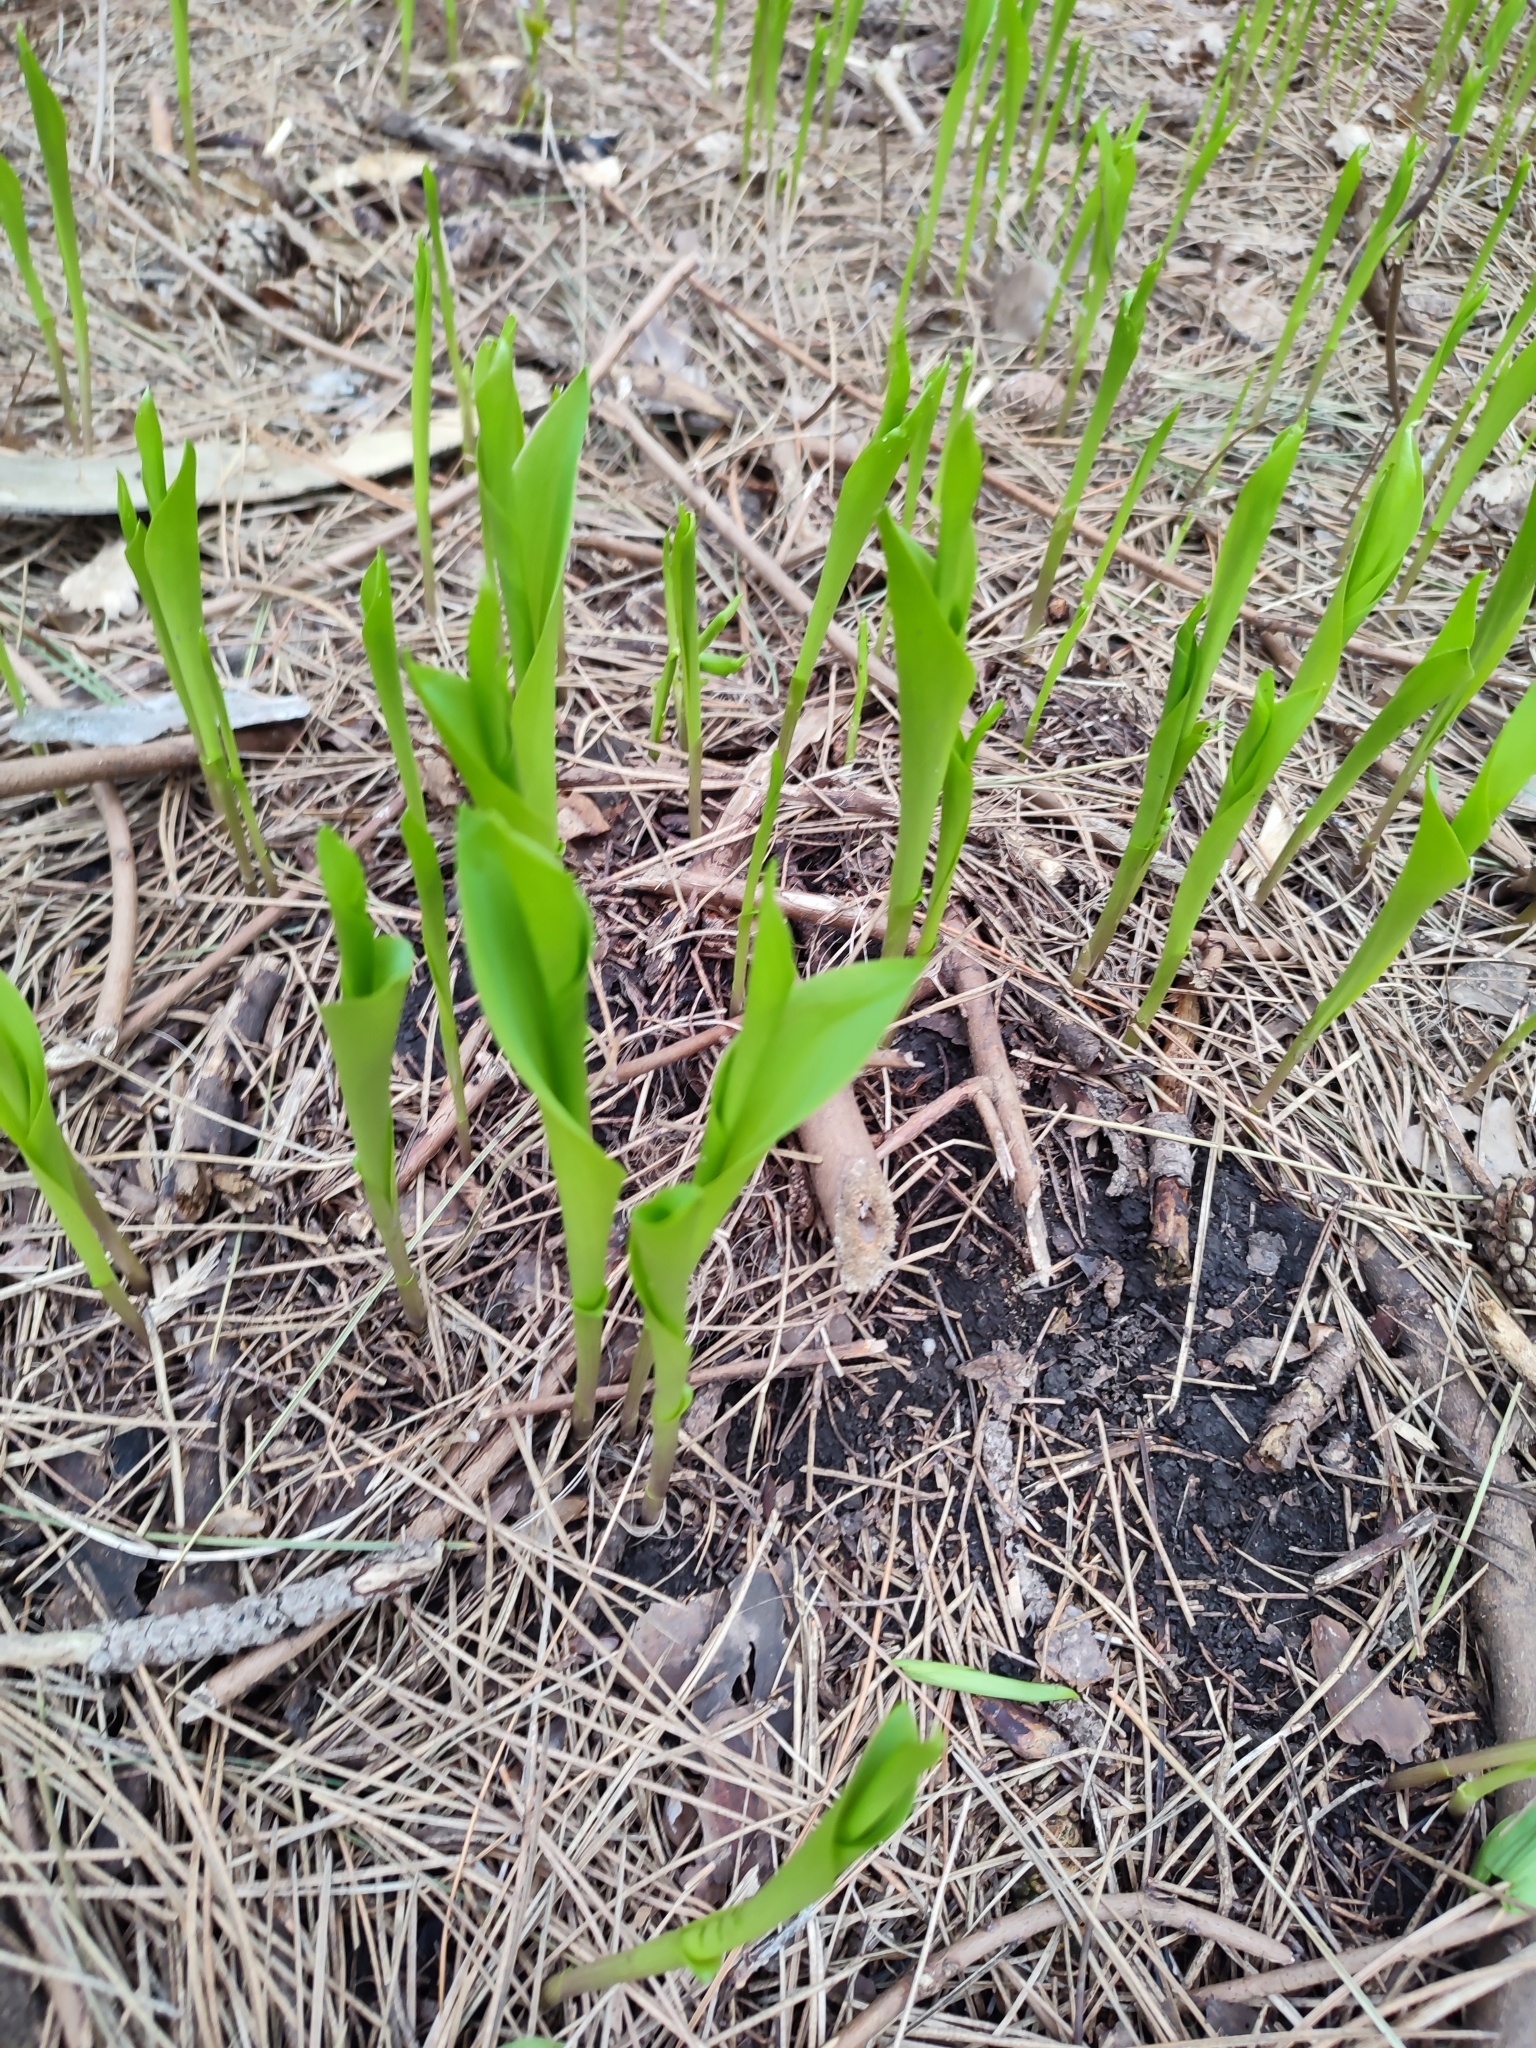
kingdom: Plantae
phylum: Tracheophyta
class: Liliopsida
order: Asparagales
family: Asparagaceae
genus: Convallaria
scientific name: Convallaria majalis
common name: Lily-of-the-valley
